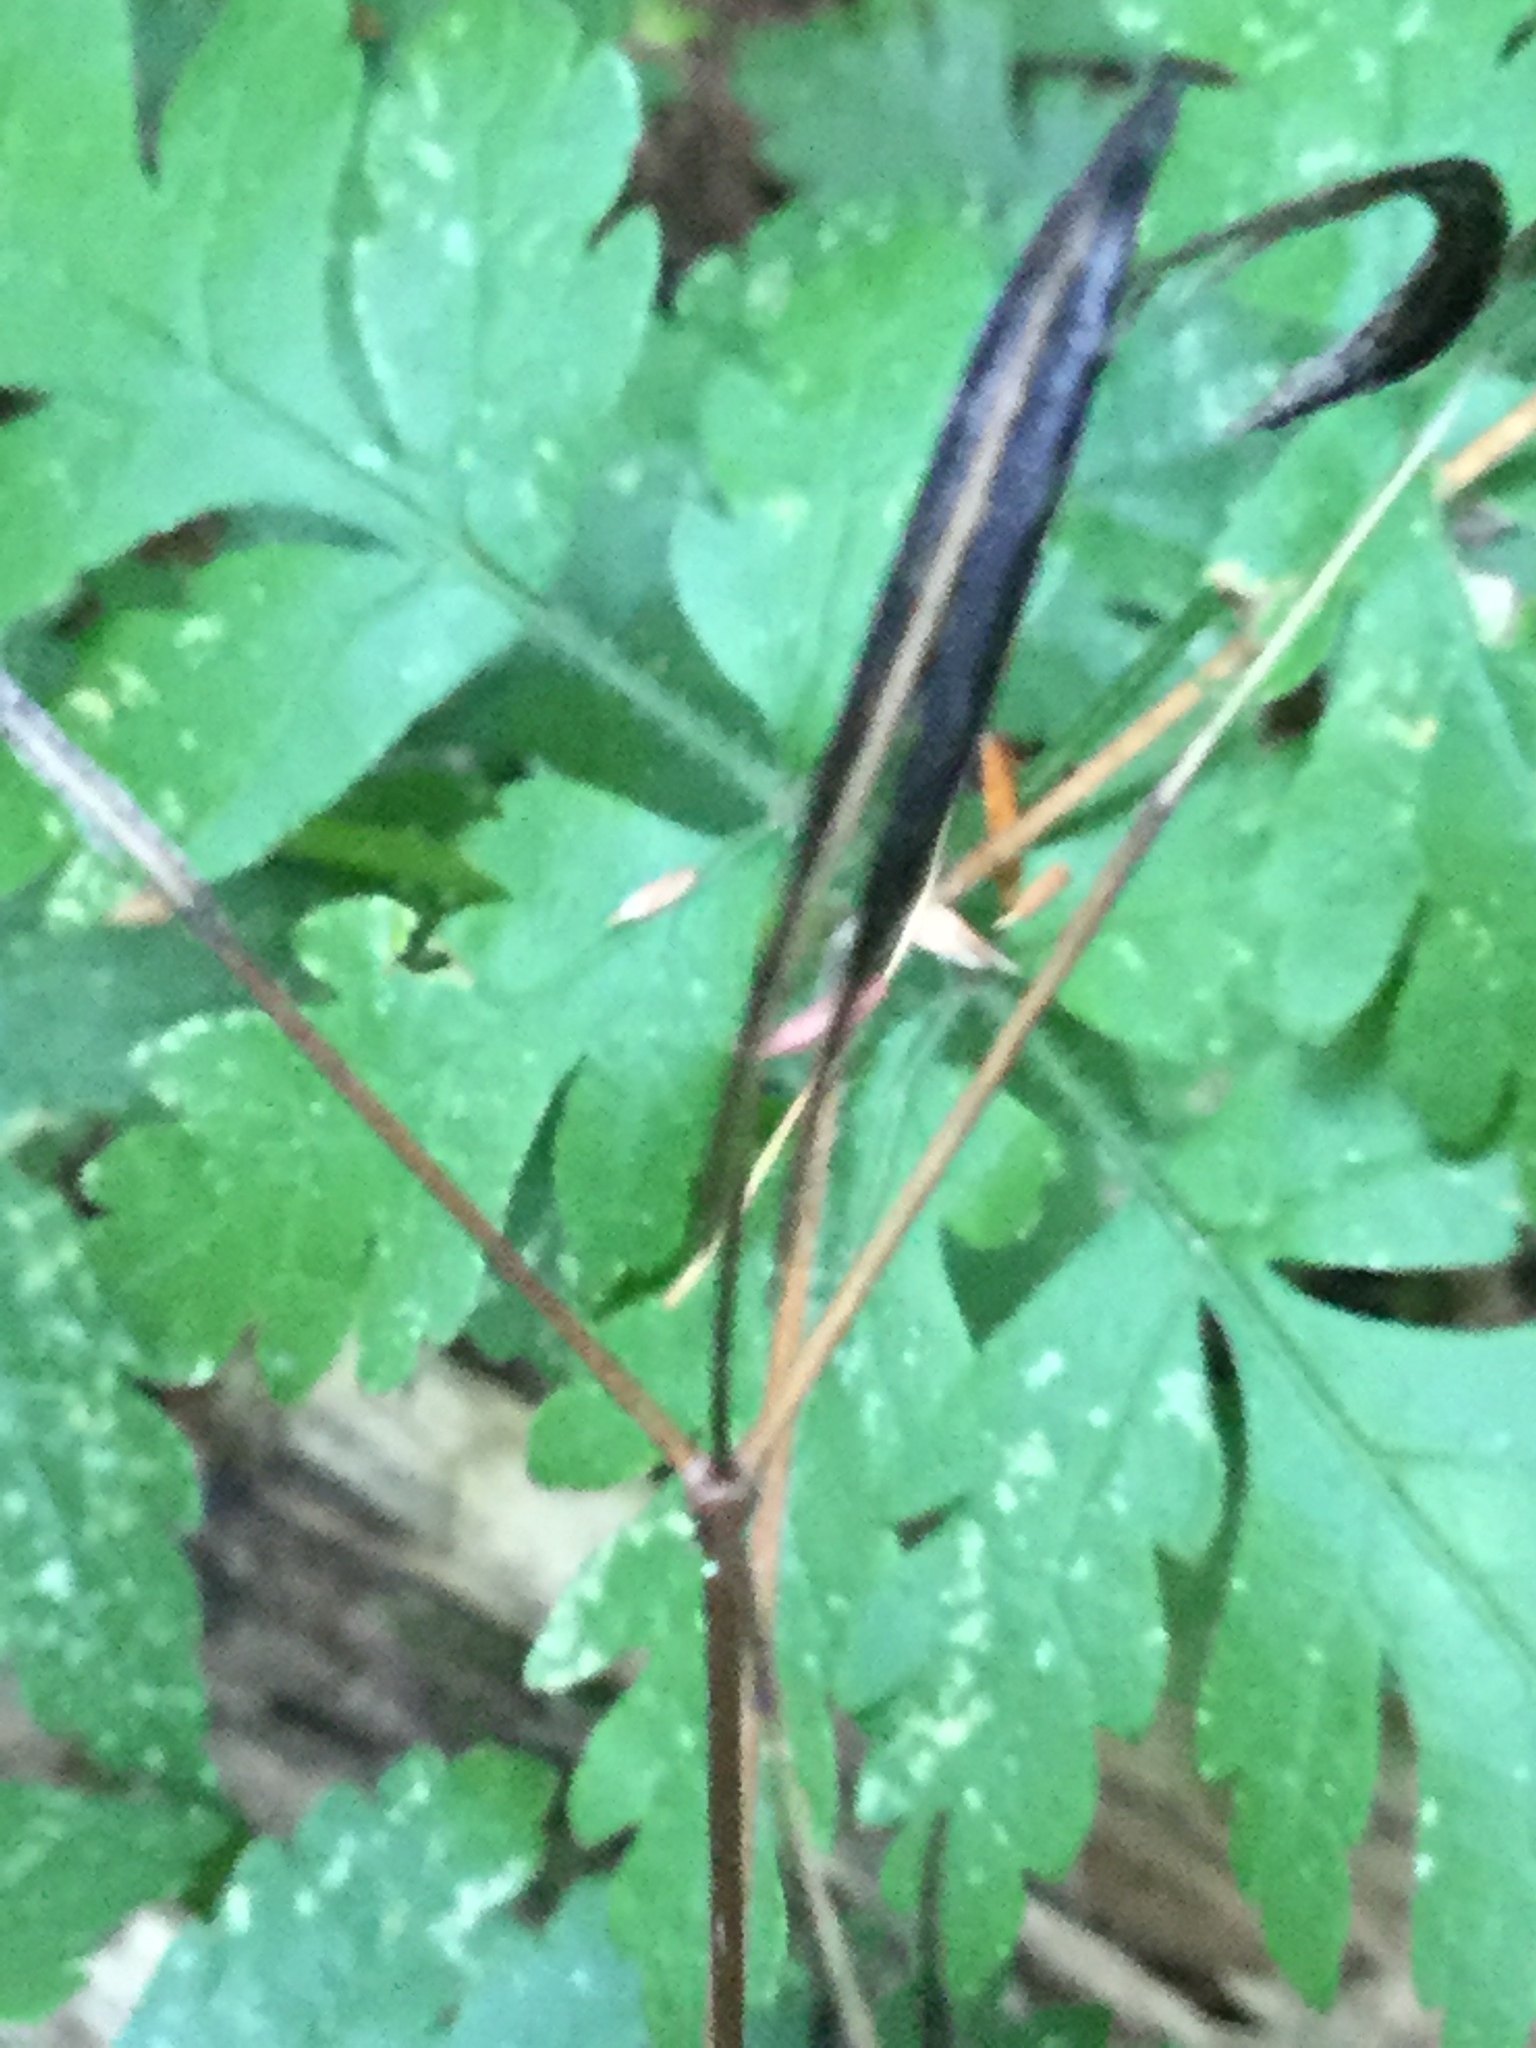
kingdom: Plantae
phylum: Tracheophyta
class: Magnoliopsida
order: Apiales
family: Apiaceae
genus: Osmorhiza
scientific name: Osmorhiza claytonii
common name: Hairy sweet cicely
